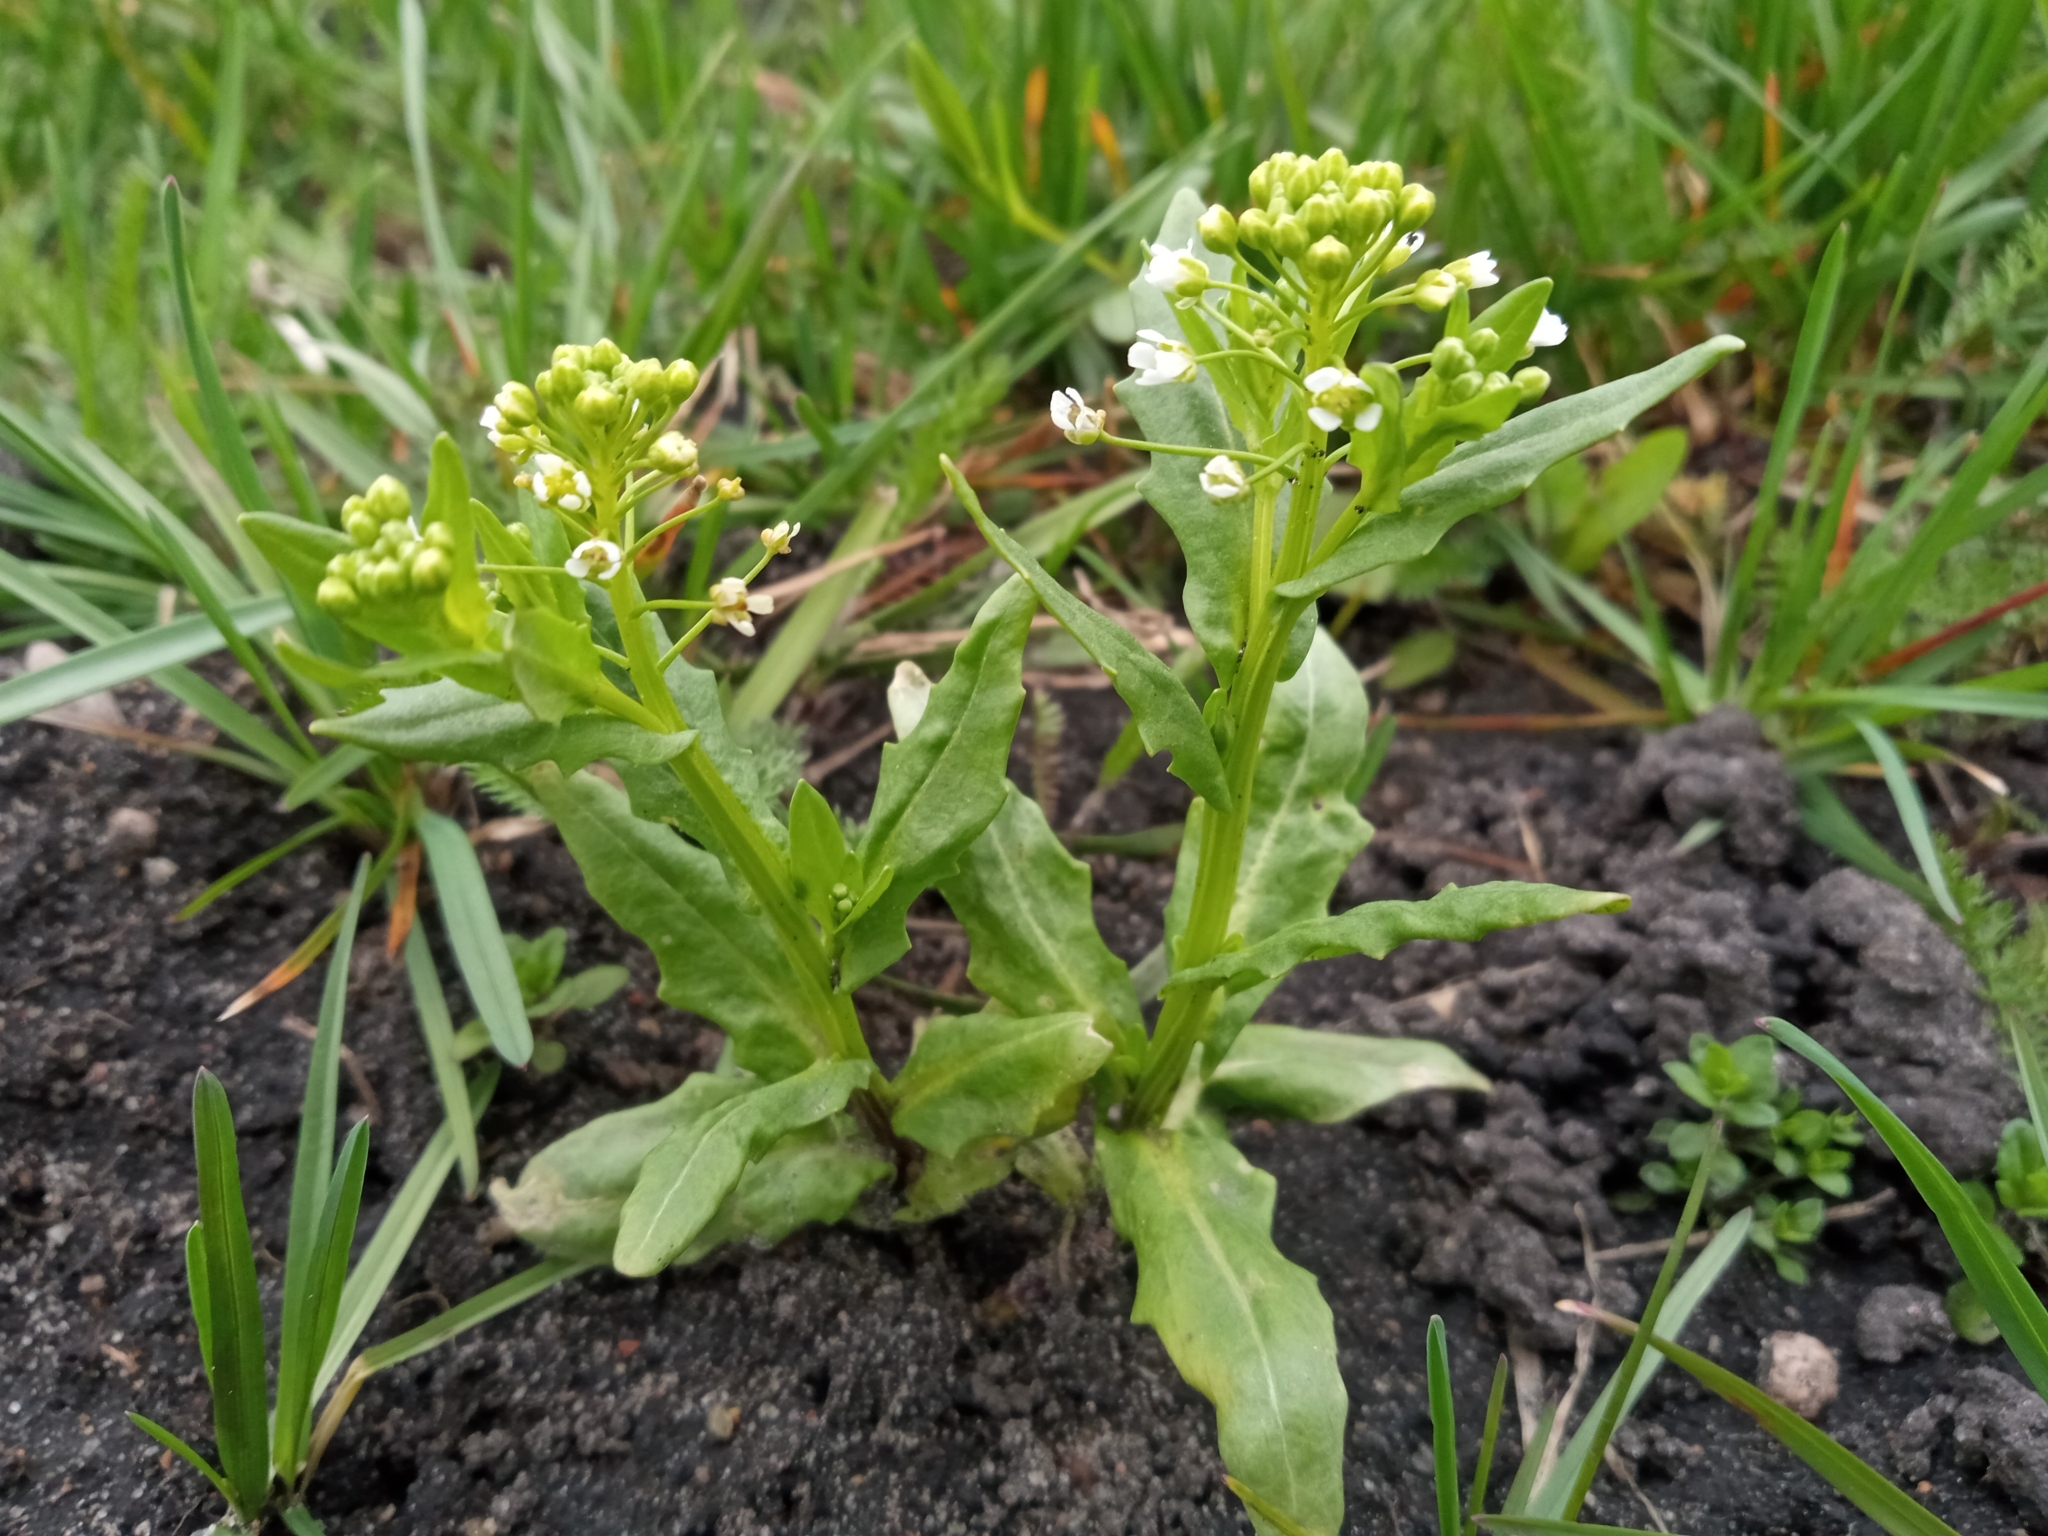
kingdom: Plantae
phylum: Tracheophyta
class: Magnoliopsida
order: Brassicales
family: Brassicaceae
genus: Thlaspi
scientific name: Thlaspi arvense
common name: Field pennycress
